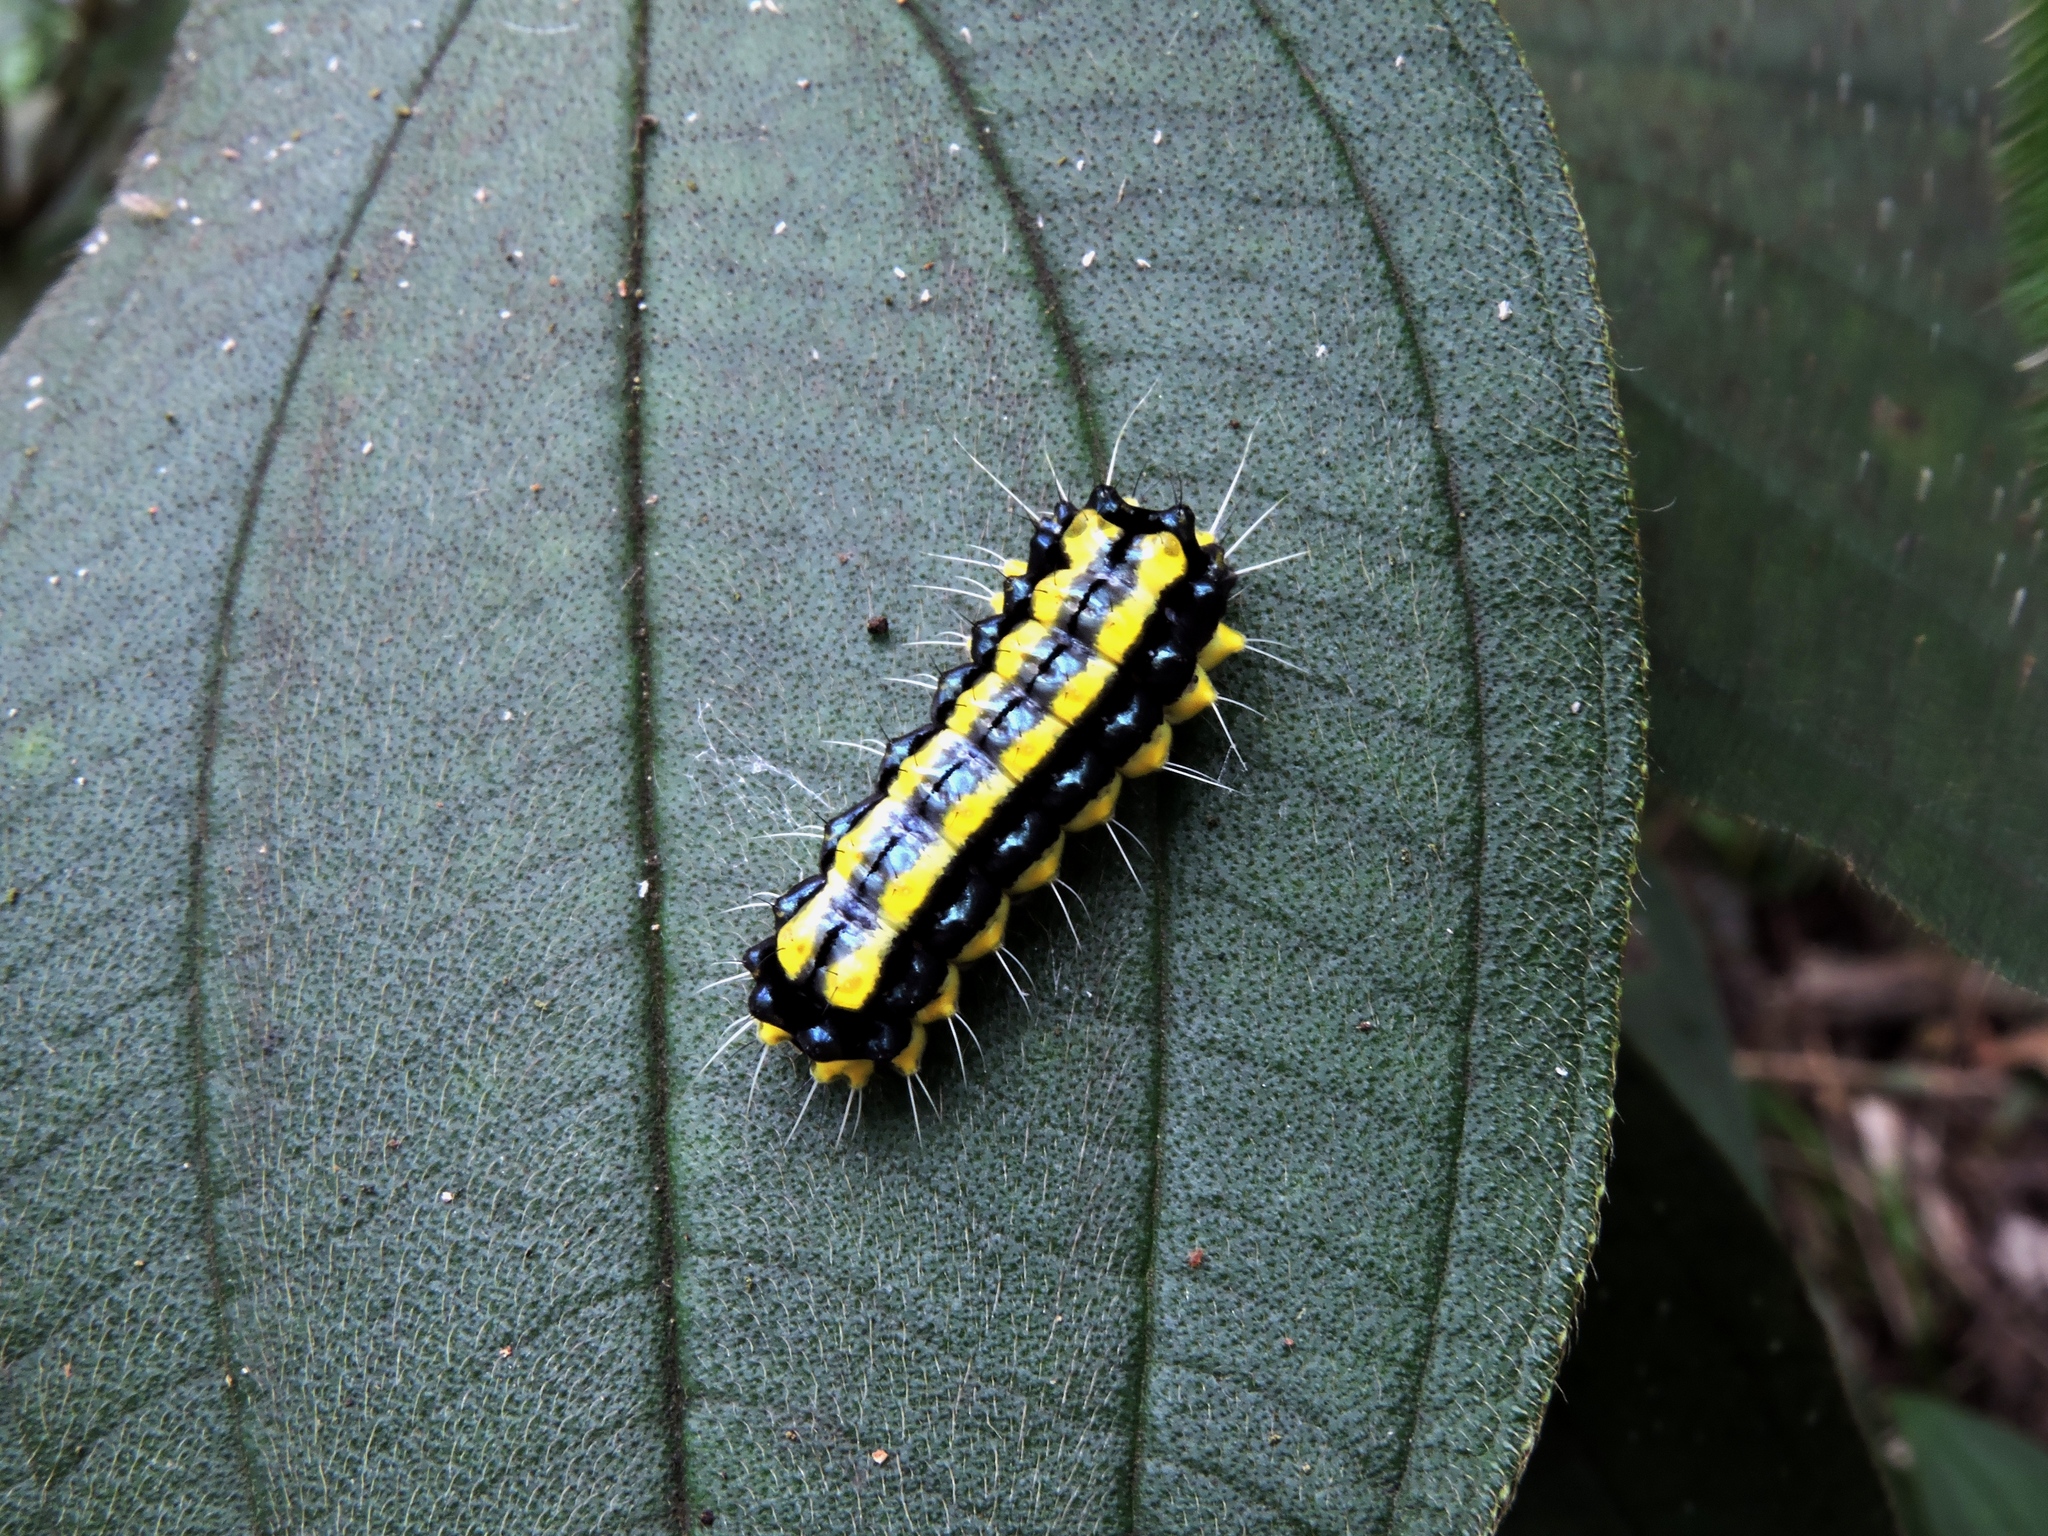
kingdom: Animalia
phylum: Arthropoda
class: Insecta
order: Lepidoptera
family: Zygaenidae
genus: Pidorus
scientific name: Pidorus glaucopis
